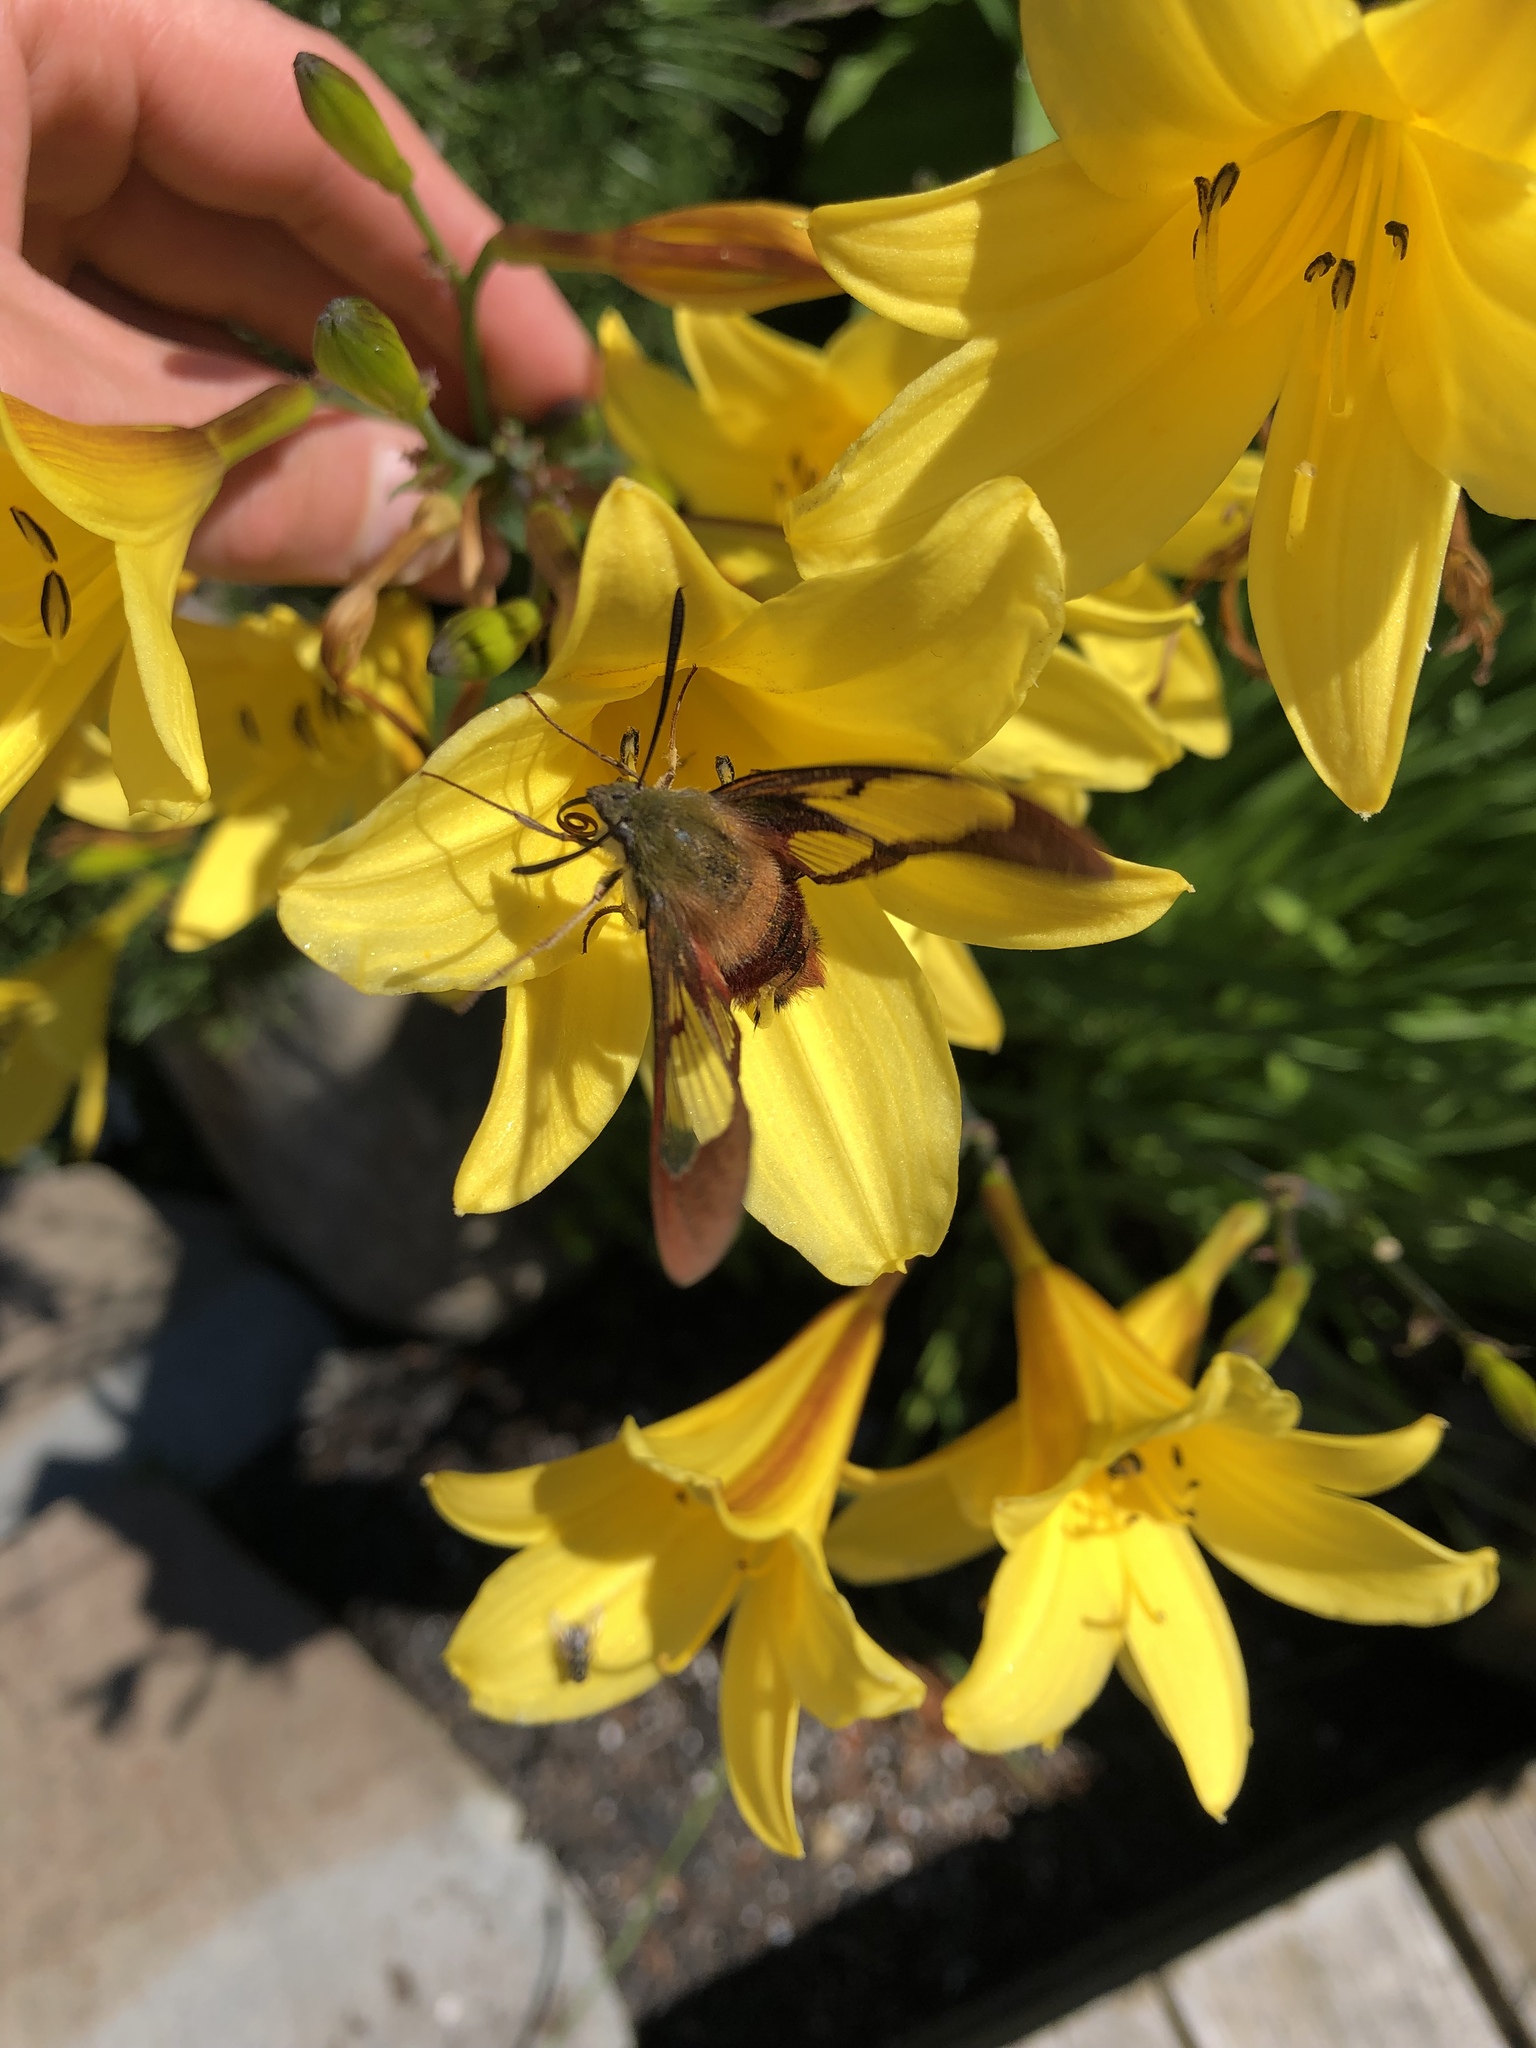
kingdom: Animalia
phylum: Arthropoda
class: Insecta
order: Lepidoptera
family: Sphingidae
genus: Hemaris
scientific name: Hemaris thysbe
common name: Common clear-wing
